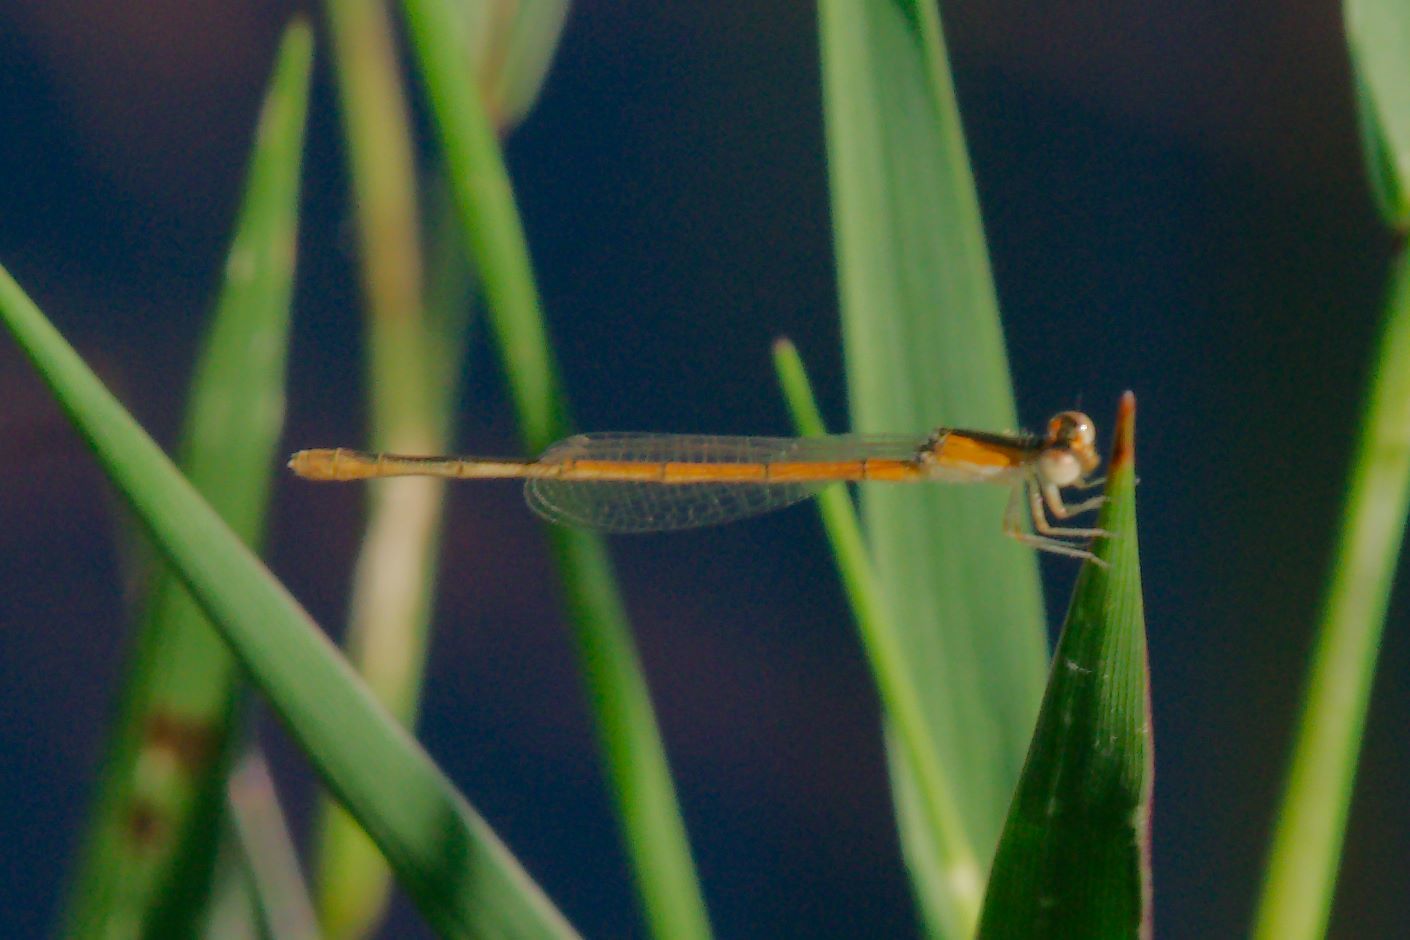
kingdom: Animalia
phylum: Arthropoda
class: Insecta
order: Odonata
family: Coenagrionidae
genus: Ischnura
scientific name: Ischnura hastata
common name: Citrine forktail
